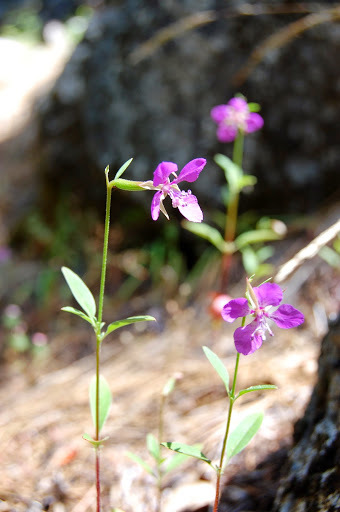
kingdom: Plantae
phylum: Tracheophyta
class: Magnoliopsida
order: Myrtales
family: Onagraceae
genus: Clarkia
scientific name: Clarkia rhomboidea
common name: Broadleaf clarkia
